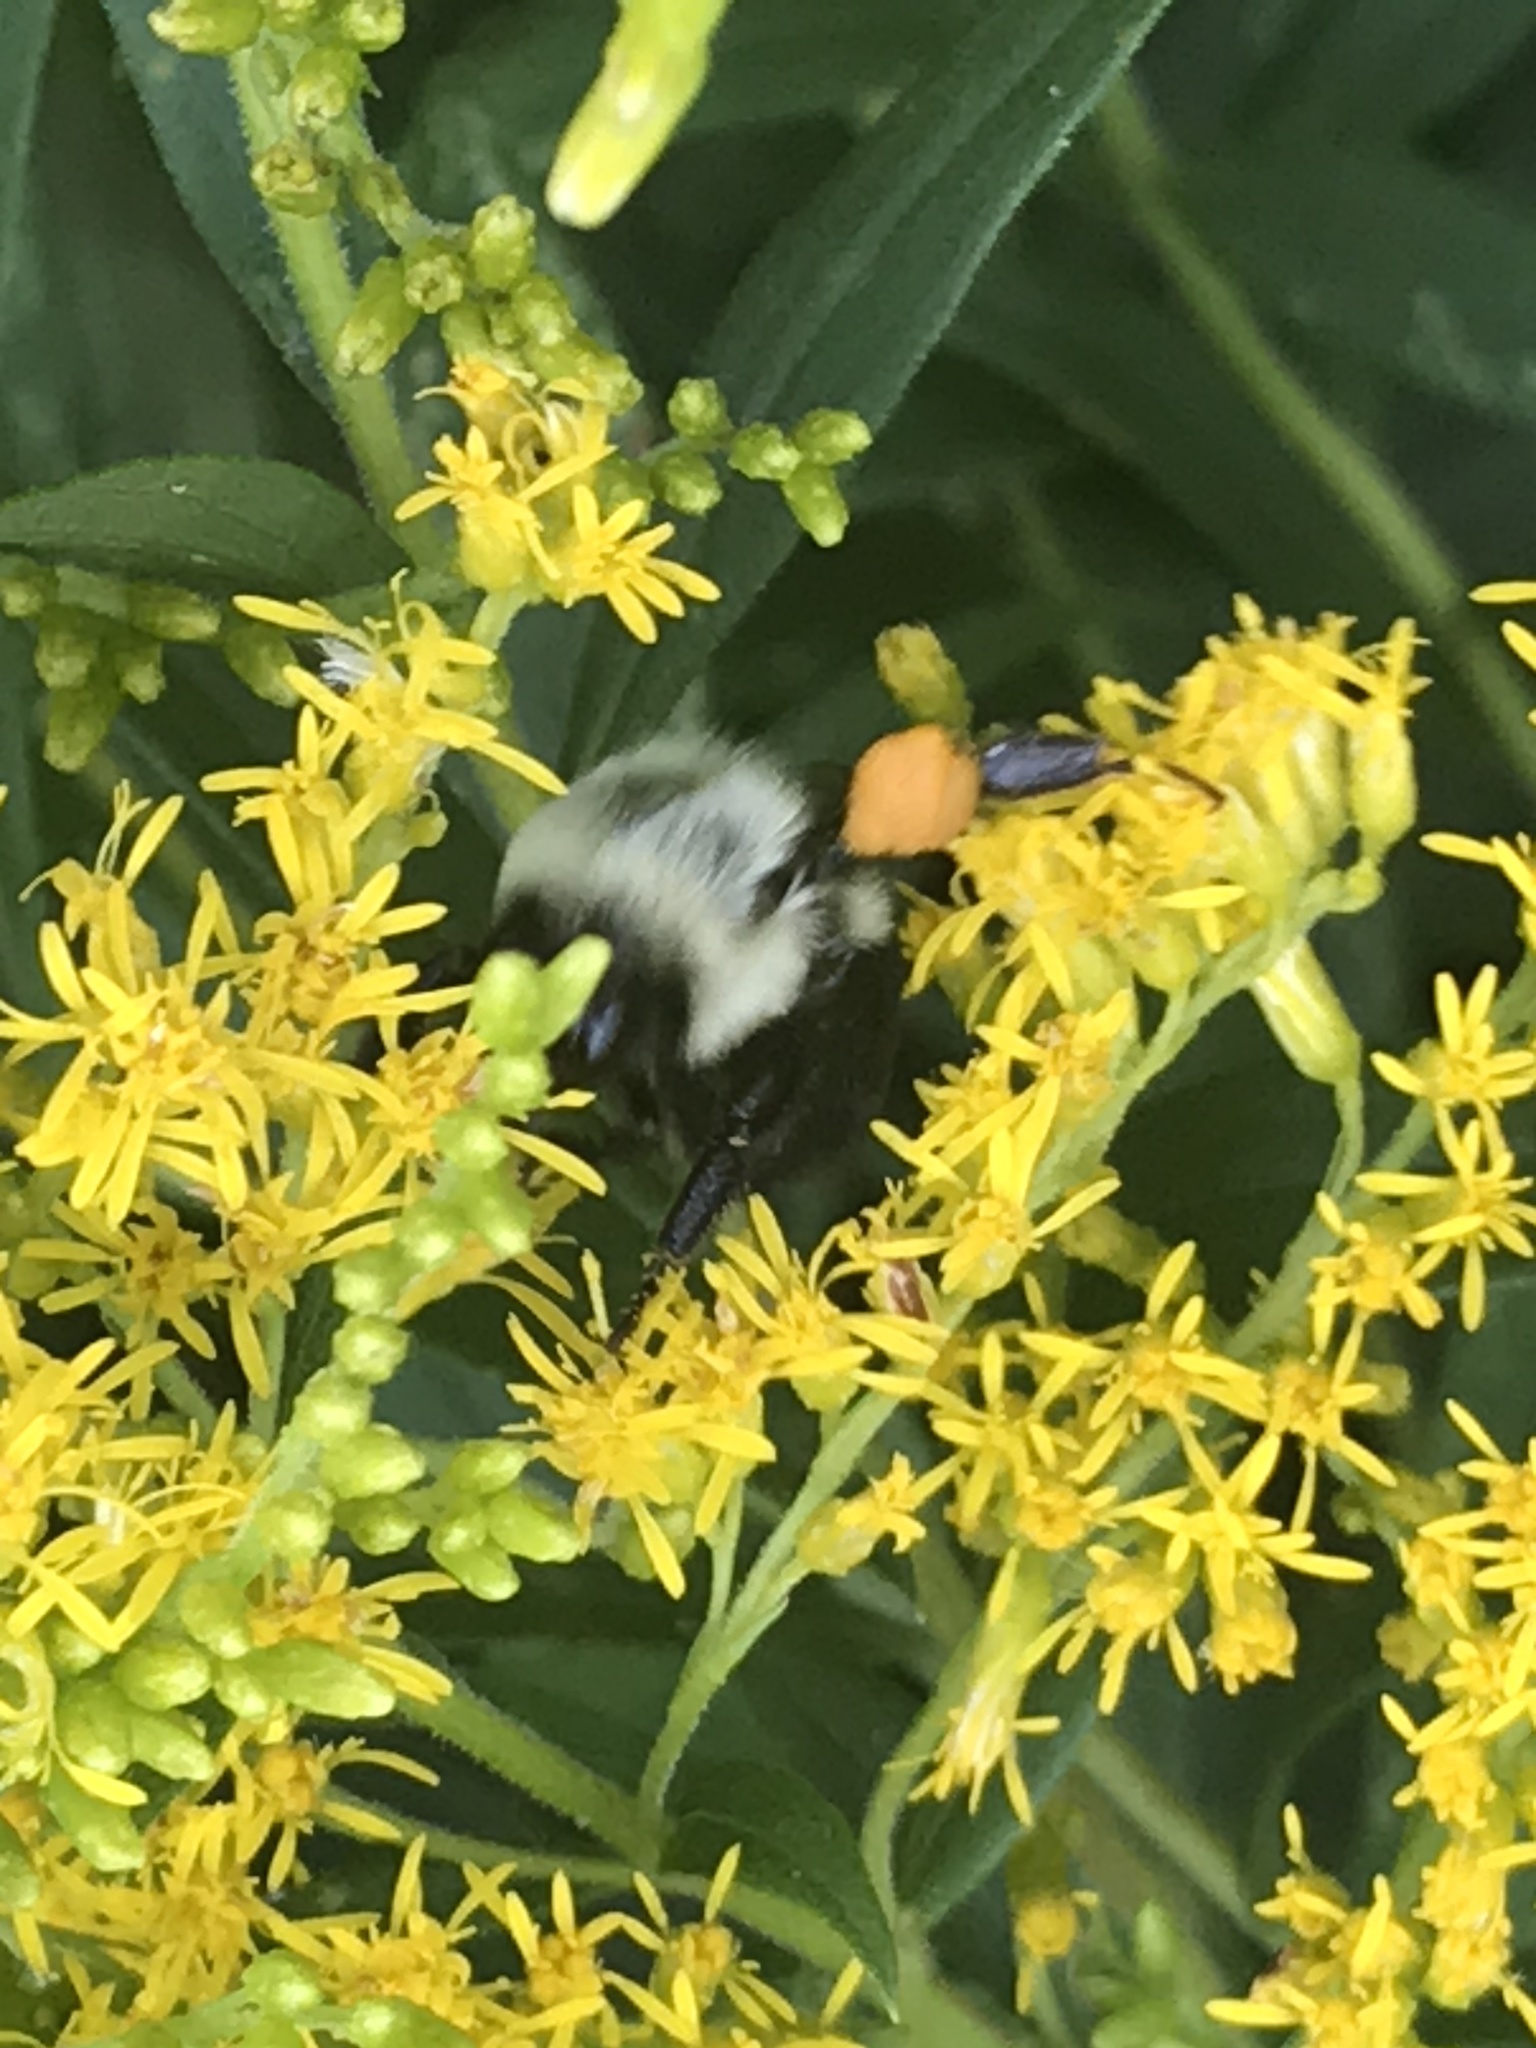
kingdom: Animalia
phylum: Arthropoda
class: Insecta
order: Hymenoptera
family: Apidae
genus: Bombus
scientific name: Bombus impatiens
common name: Common eastern bumble bee
